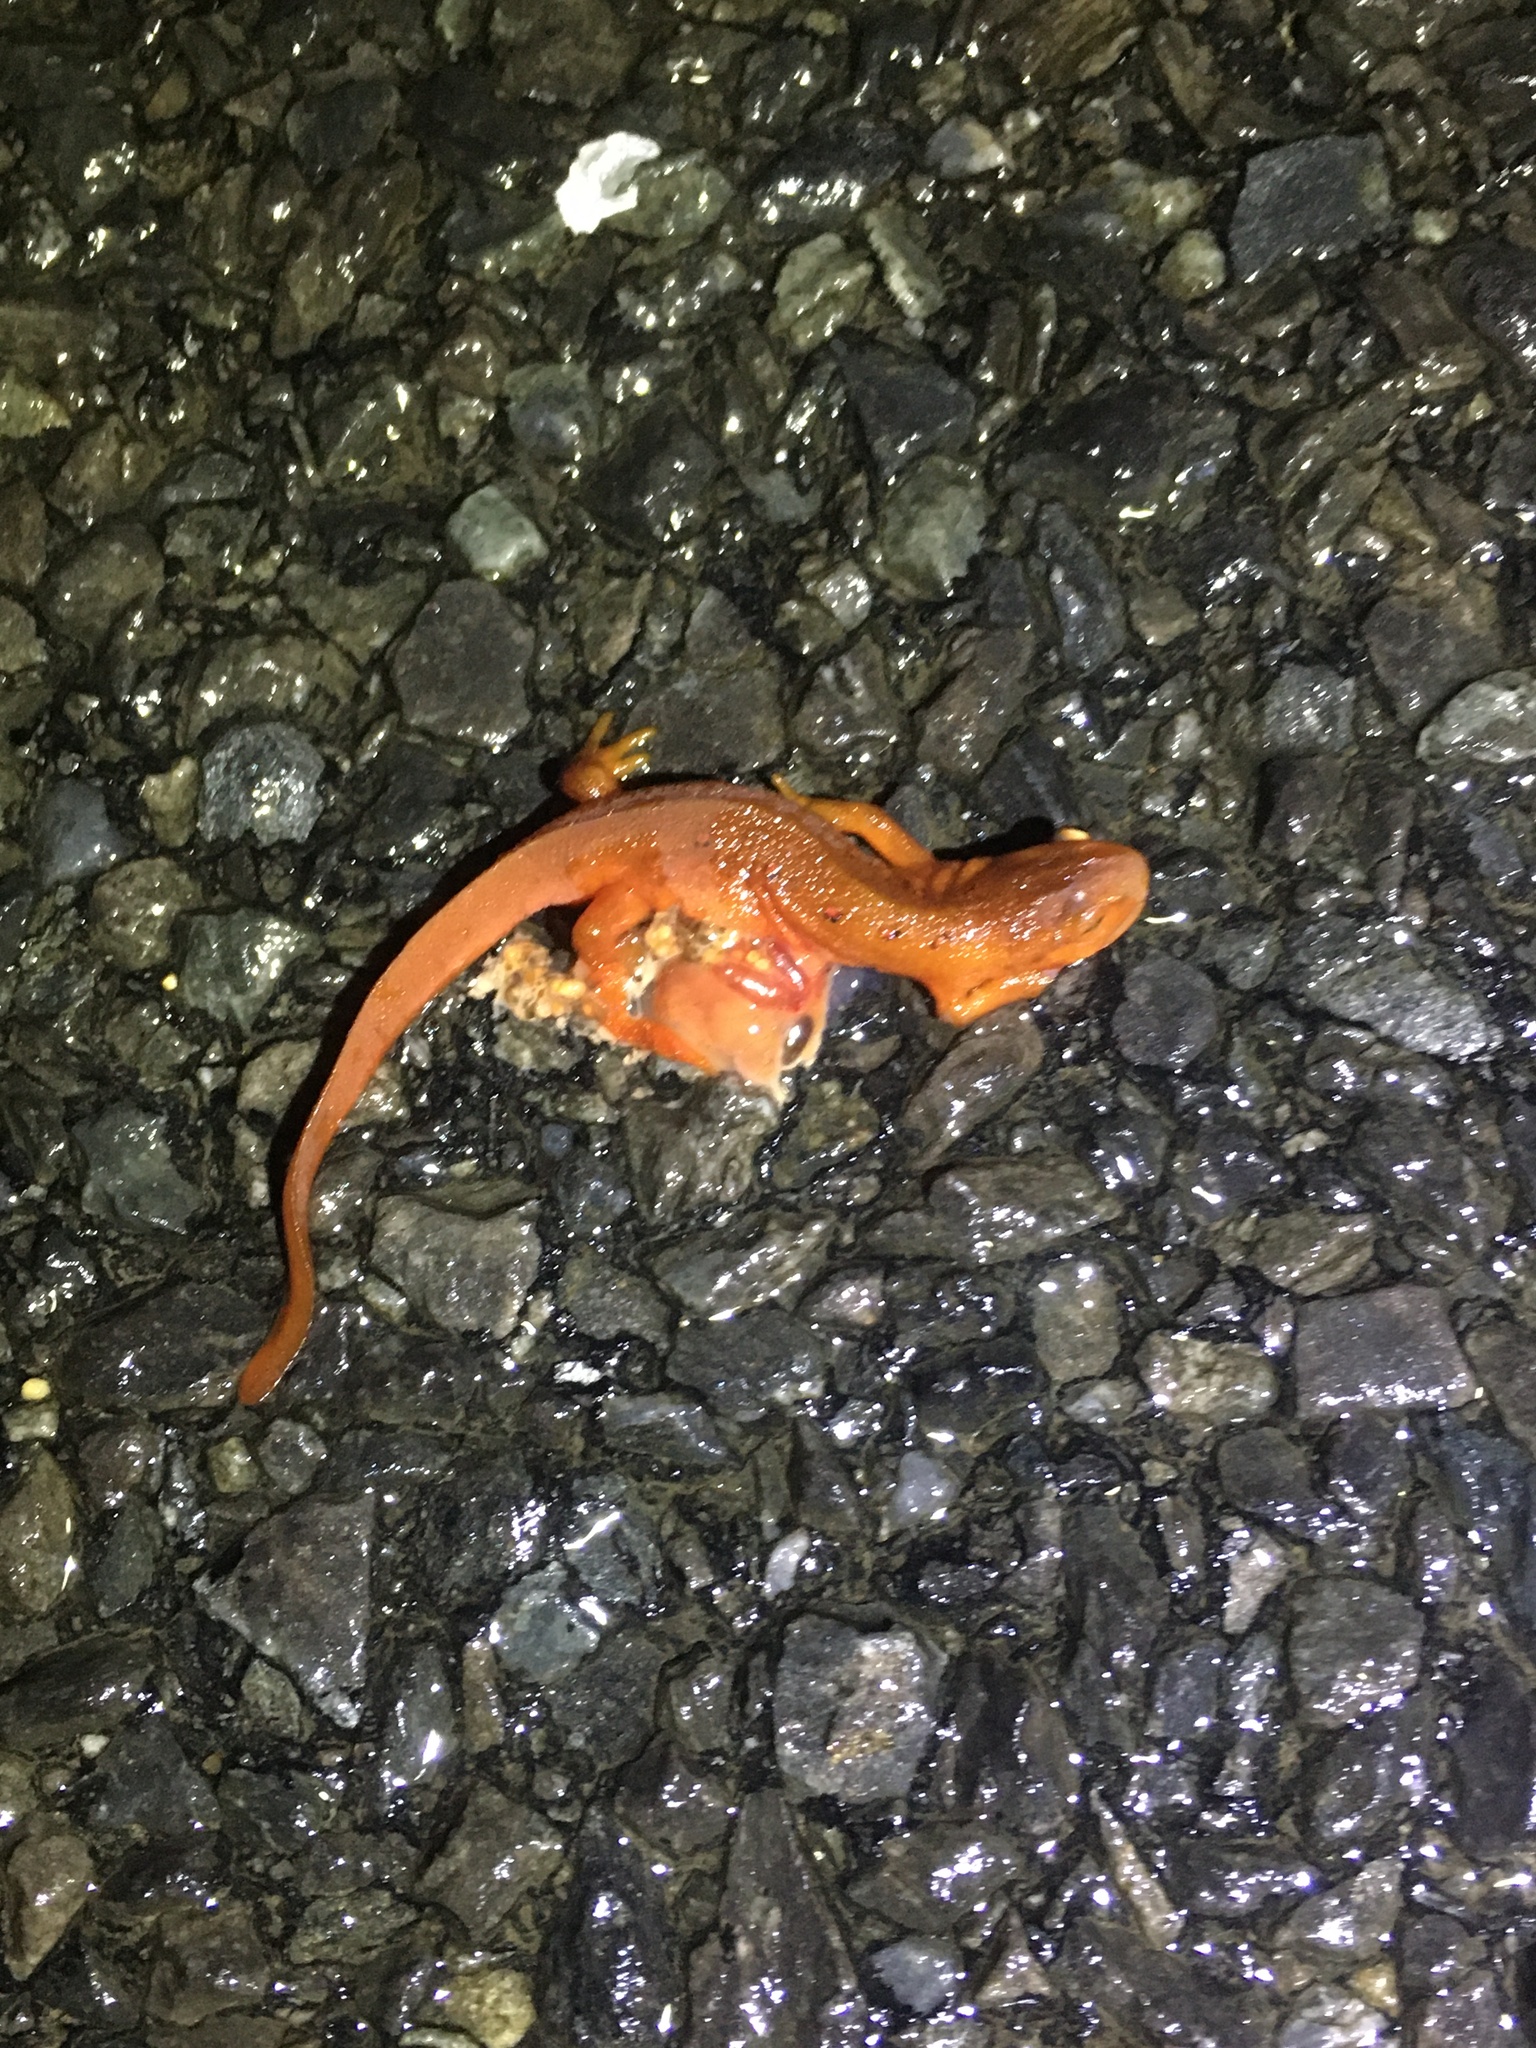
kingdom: Animalia
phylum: Chordata
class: Amphibia
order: Caudata
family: Salamandridae
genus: Notophthalmus
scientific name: Notophthalmus viridescens
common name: Eastern newt
